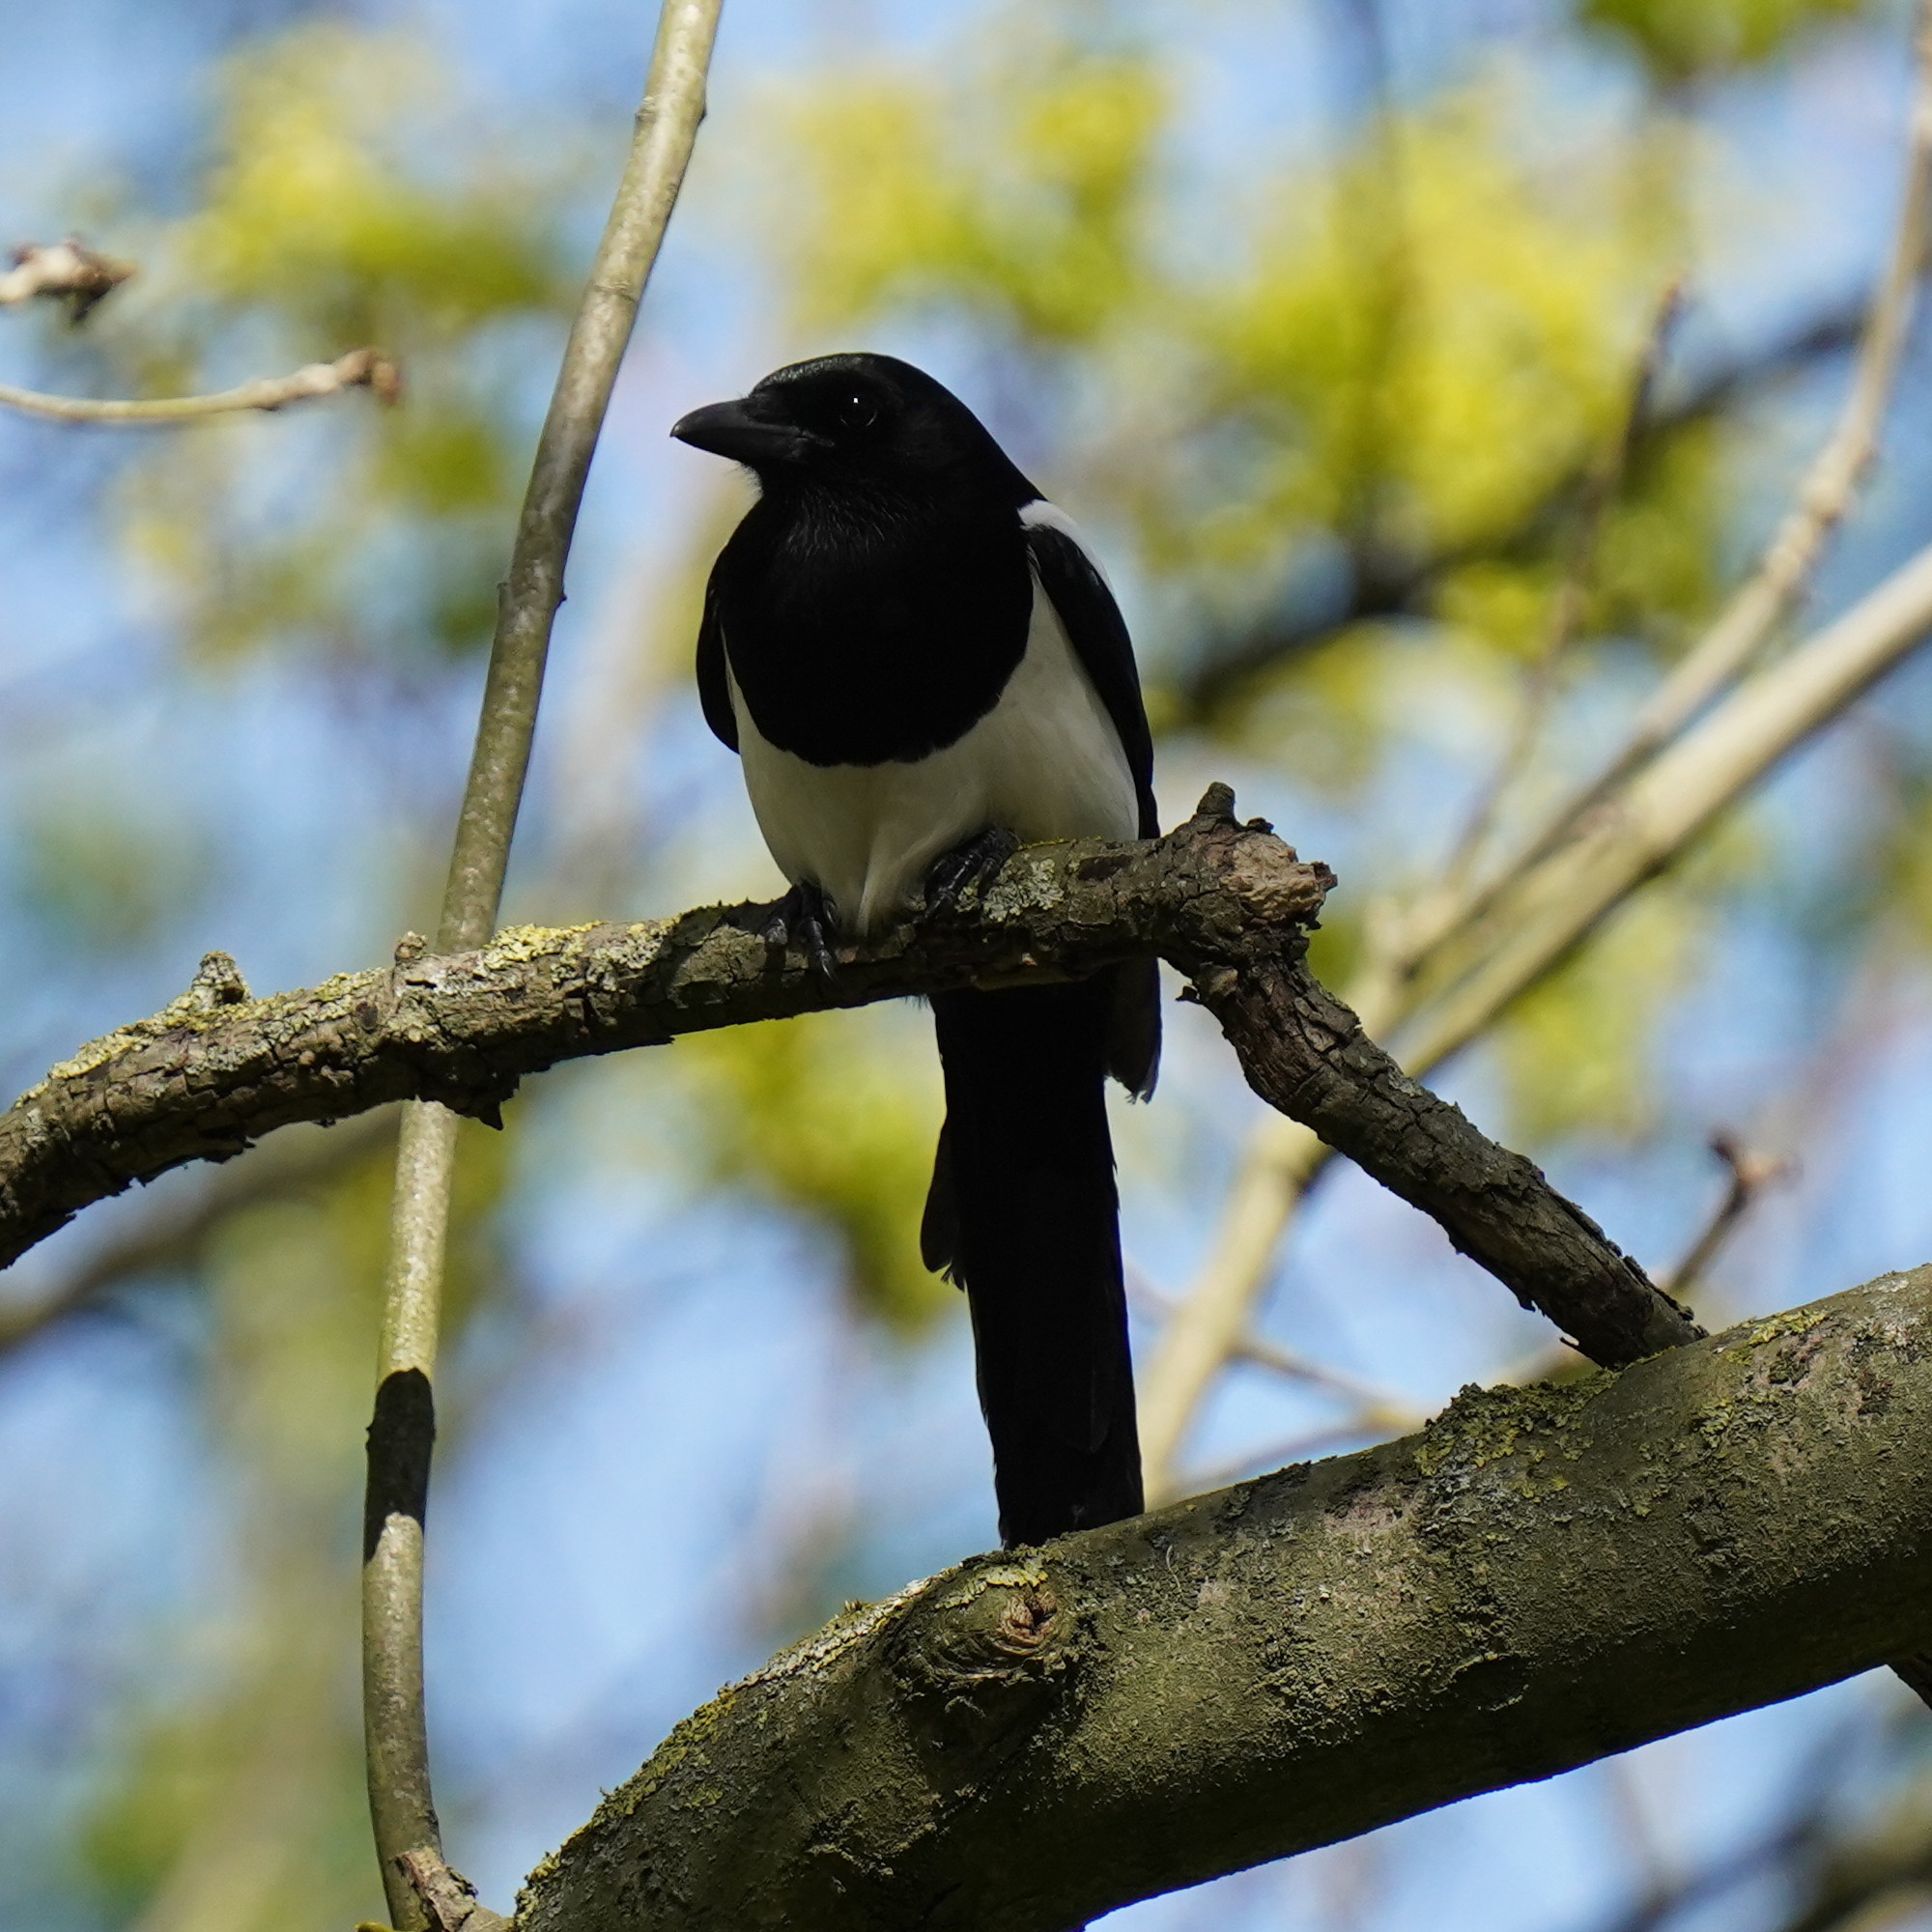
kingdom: Animalia
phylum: Chordata
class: Aves
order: Passeriformes
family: Corvidae
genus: Pica
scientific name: Pica pica
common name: Eurasian magpie
